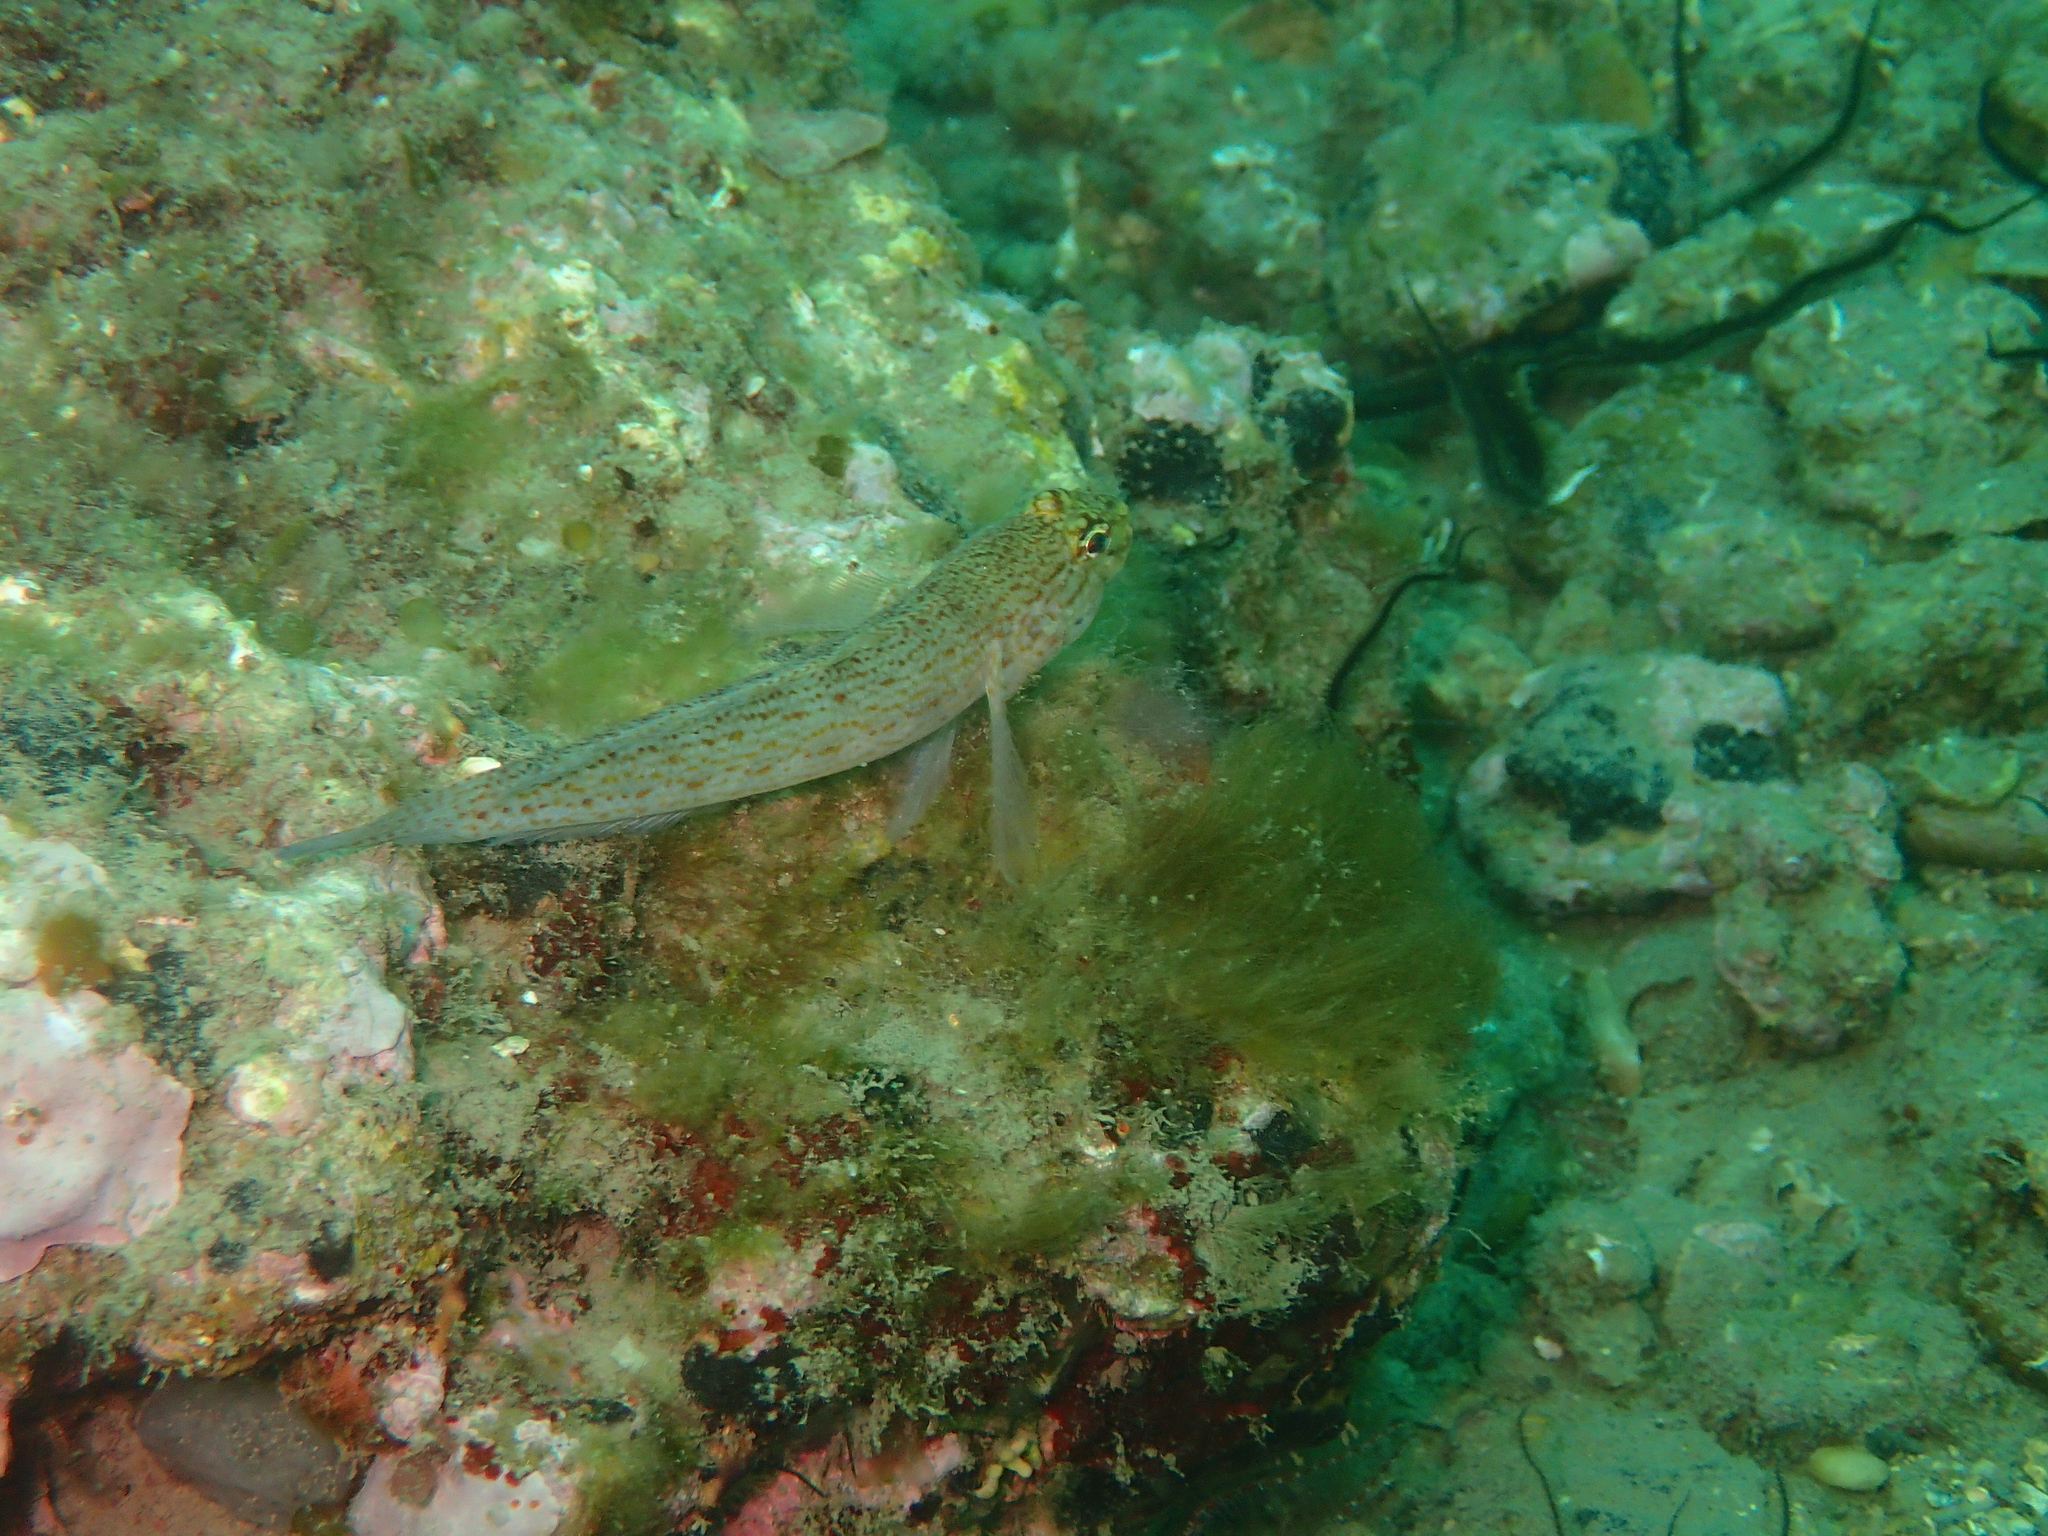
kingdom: Animalia
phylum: Chordata
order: Perciformes
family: Gobiidae
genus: Gobius
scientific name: Gobius xanthocephalus
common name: Golden goby
